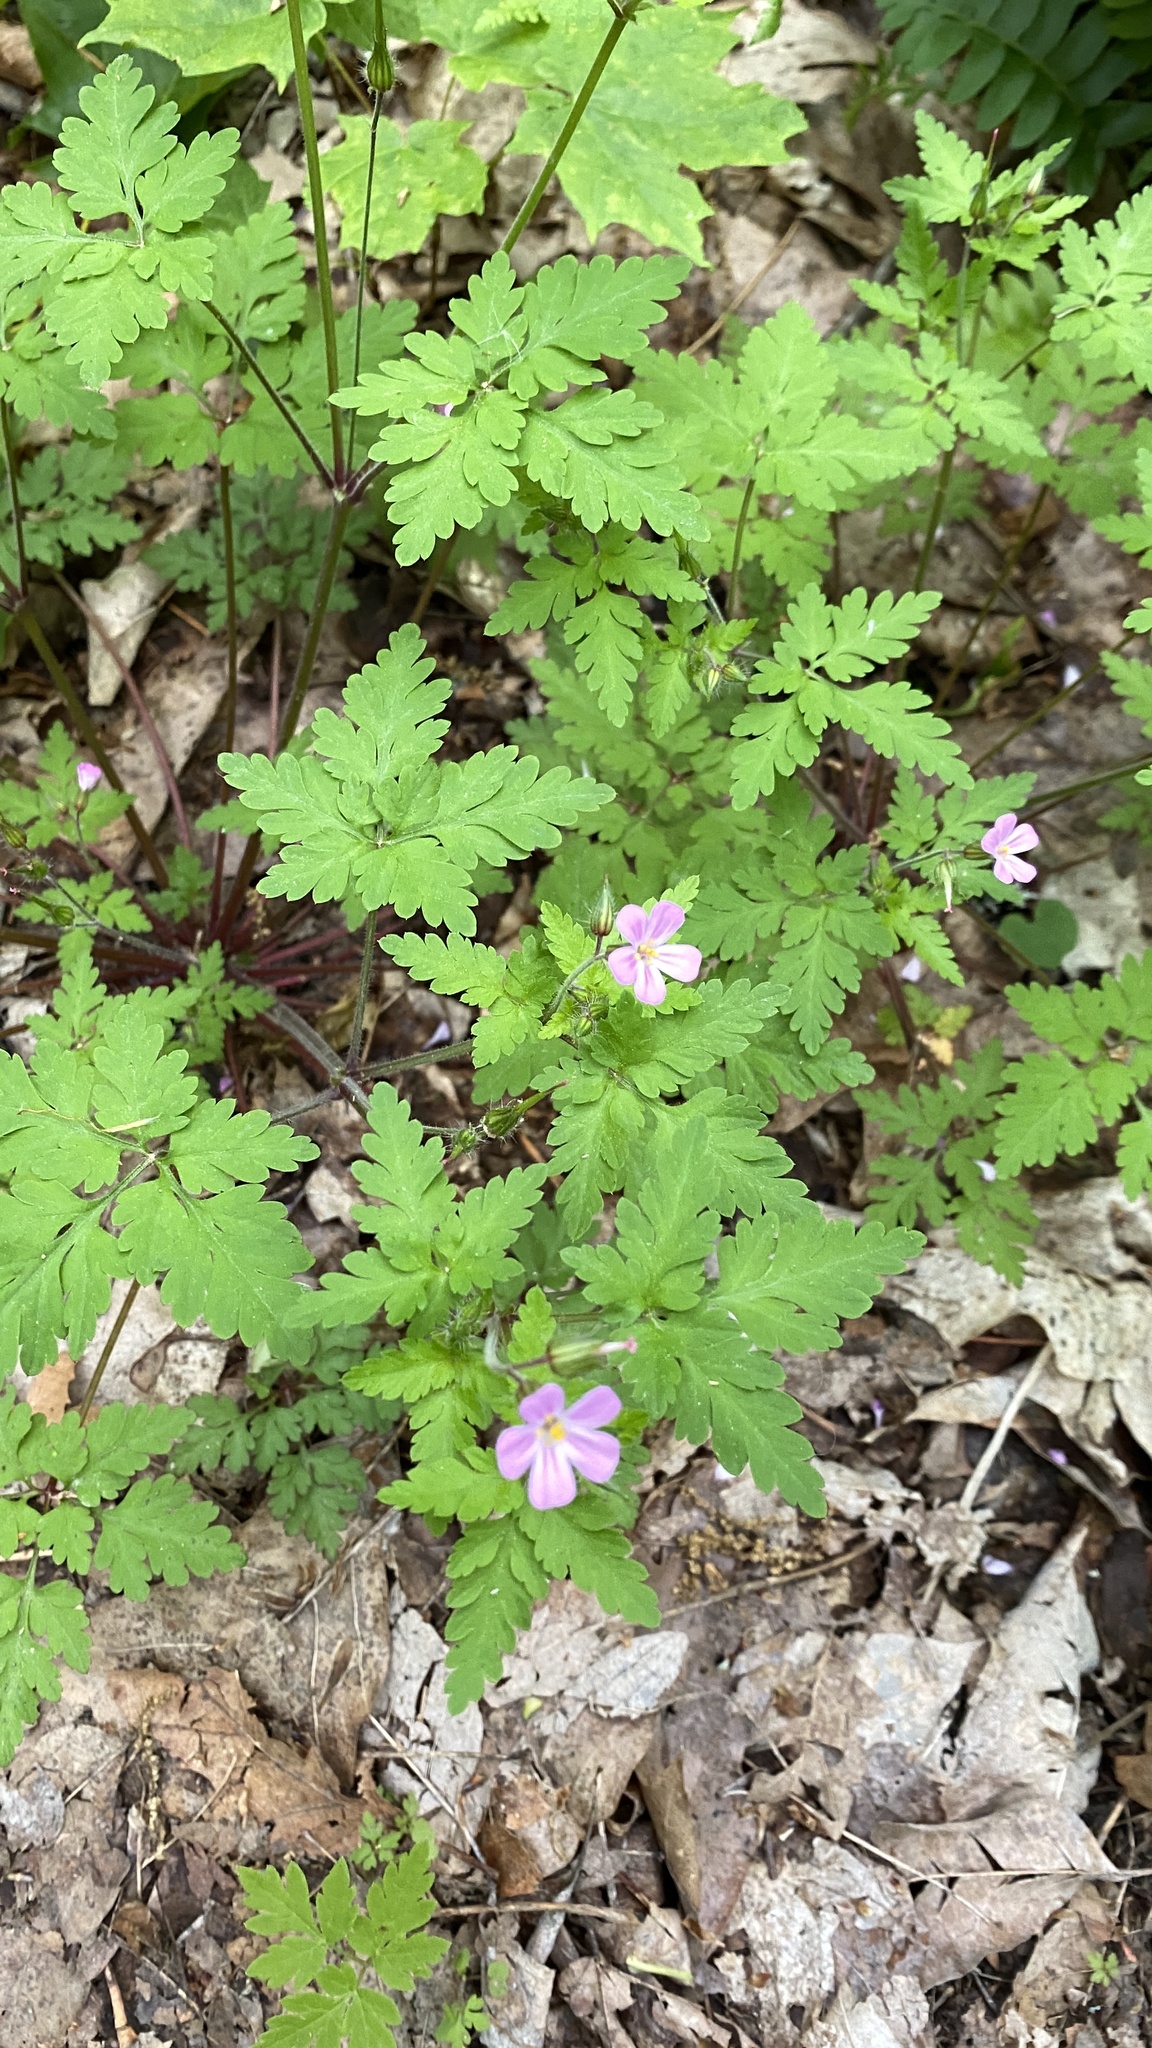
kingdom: Plantae
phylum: Tracheophyta
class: Magnoliopsida
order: Geraniales
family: Geraniaceae
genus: Geranium
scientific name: Geranium robertianum
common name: Herb-robert
